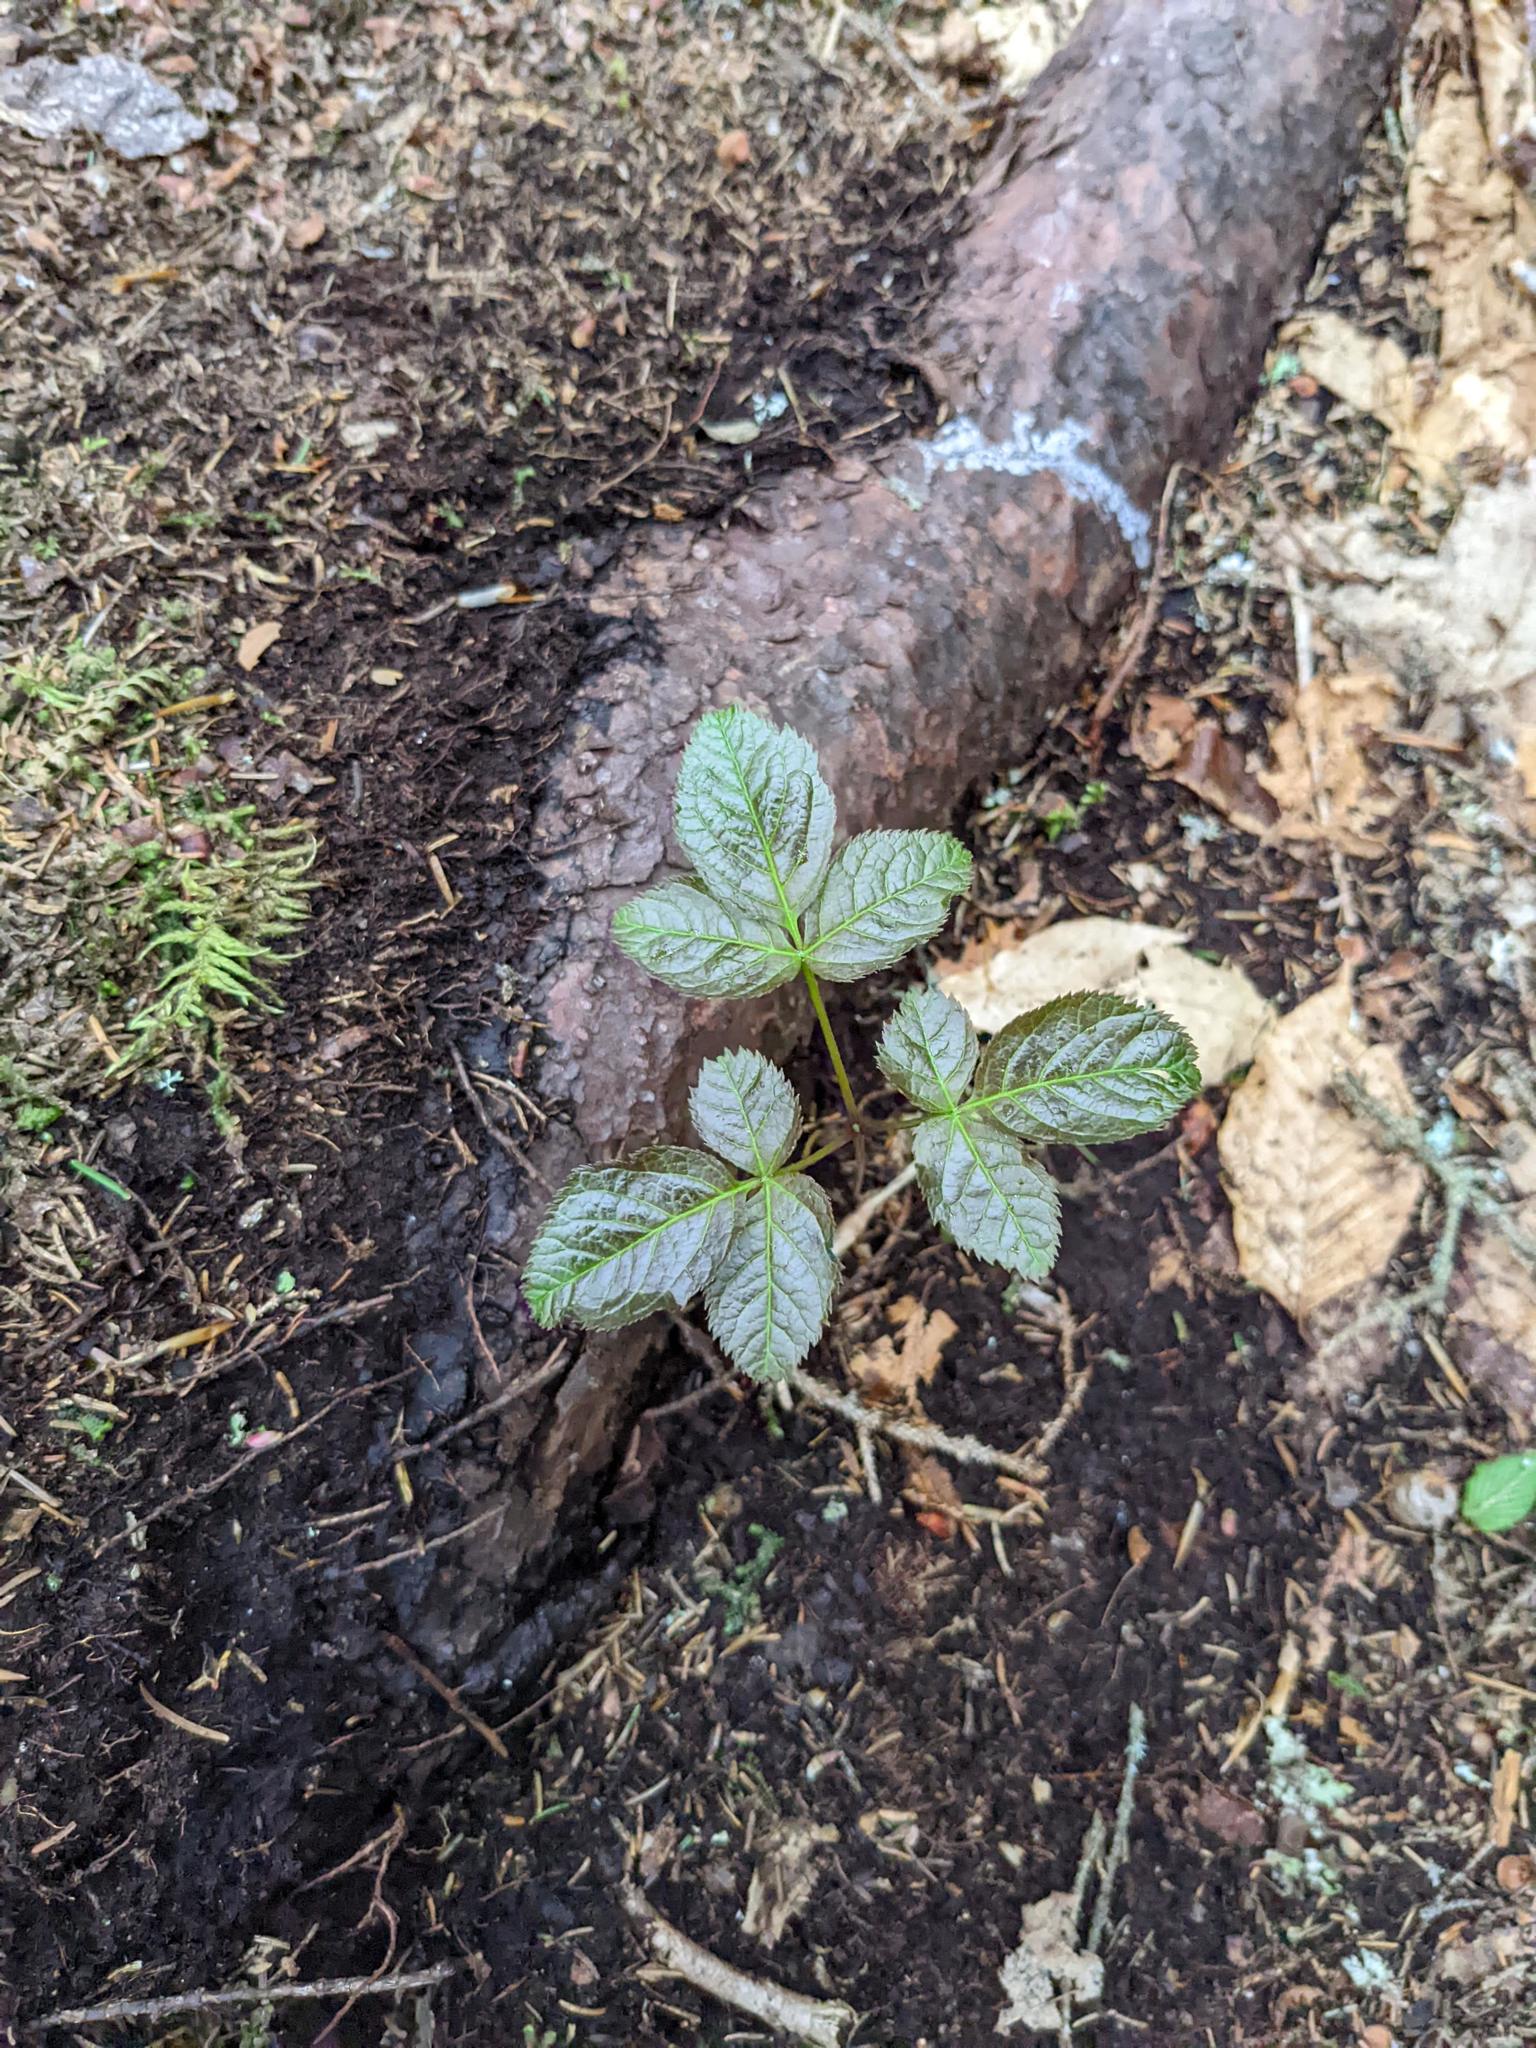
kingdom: Plantae
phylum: Tracheophyta
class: Magnoliopsida
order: Apiales
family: Araliaceae
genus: Aralia
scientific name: Aralia nudicaulis
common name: Wild sarsaparilla
